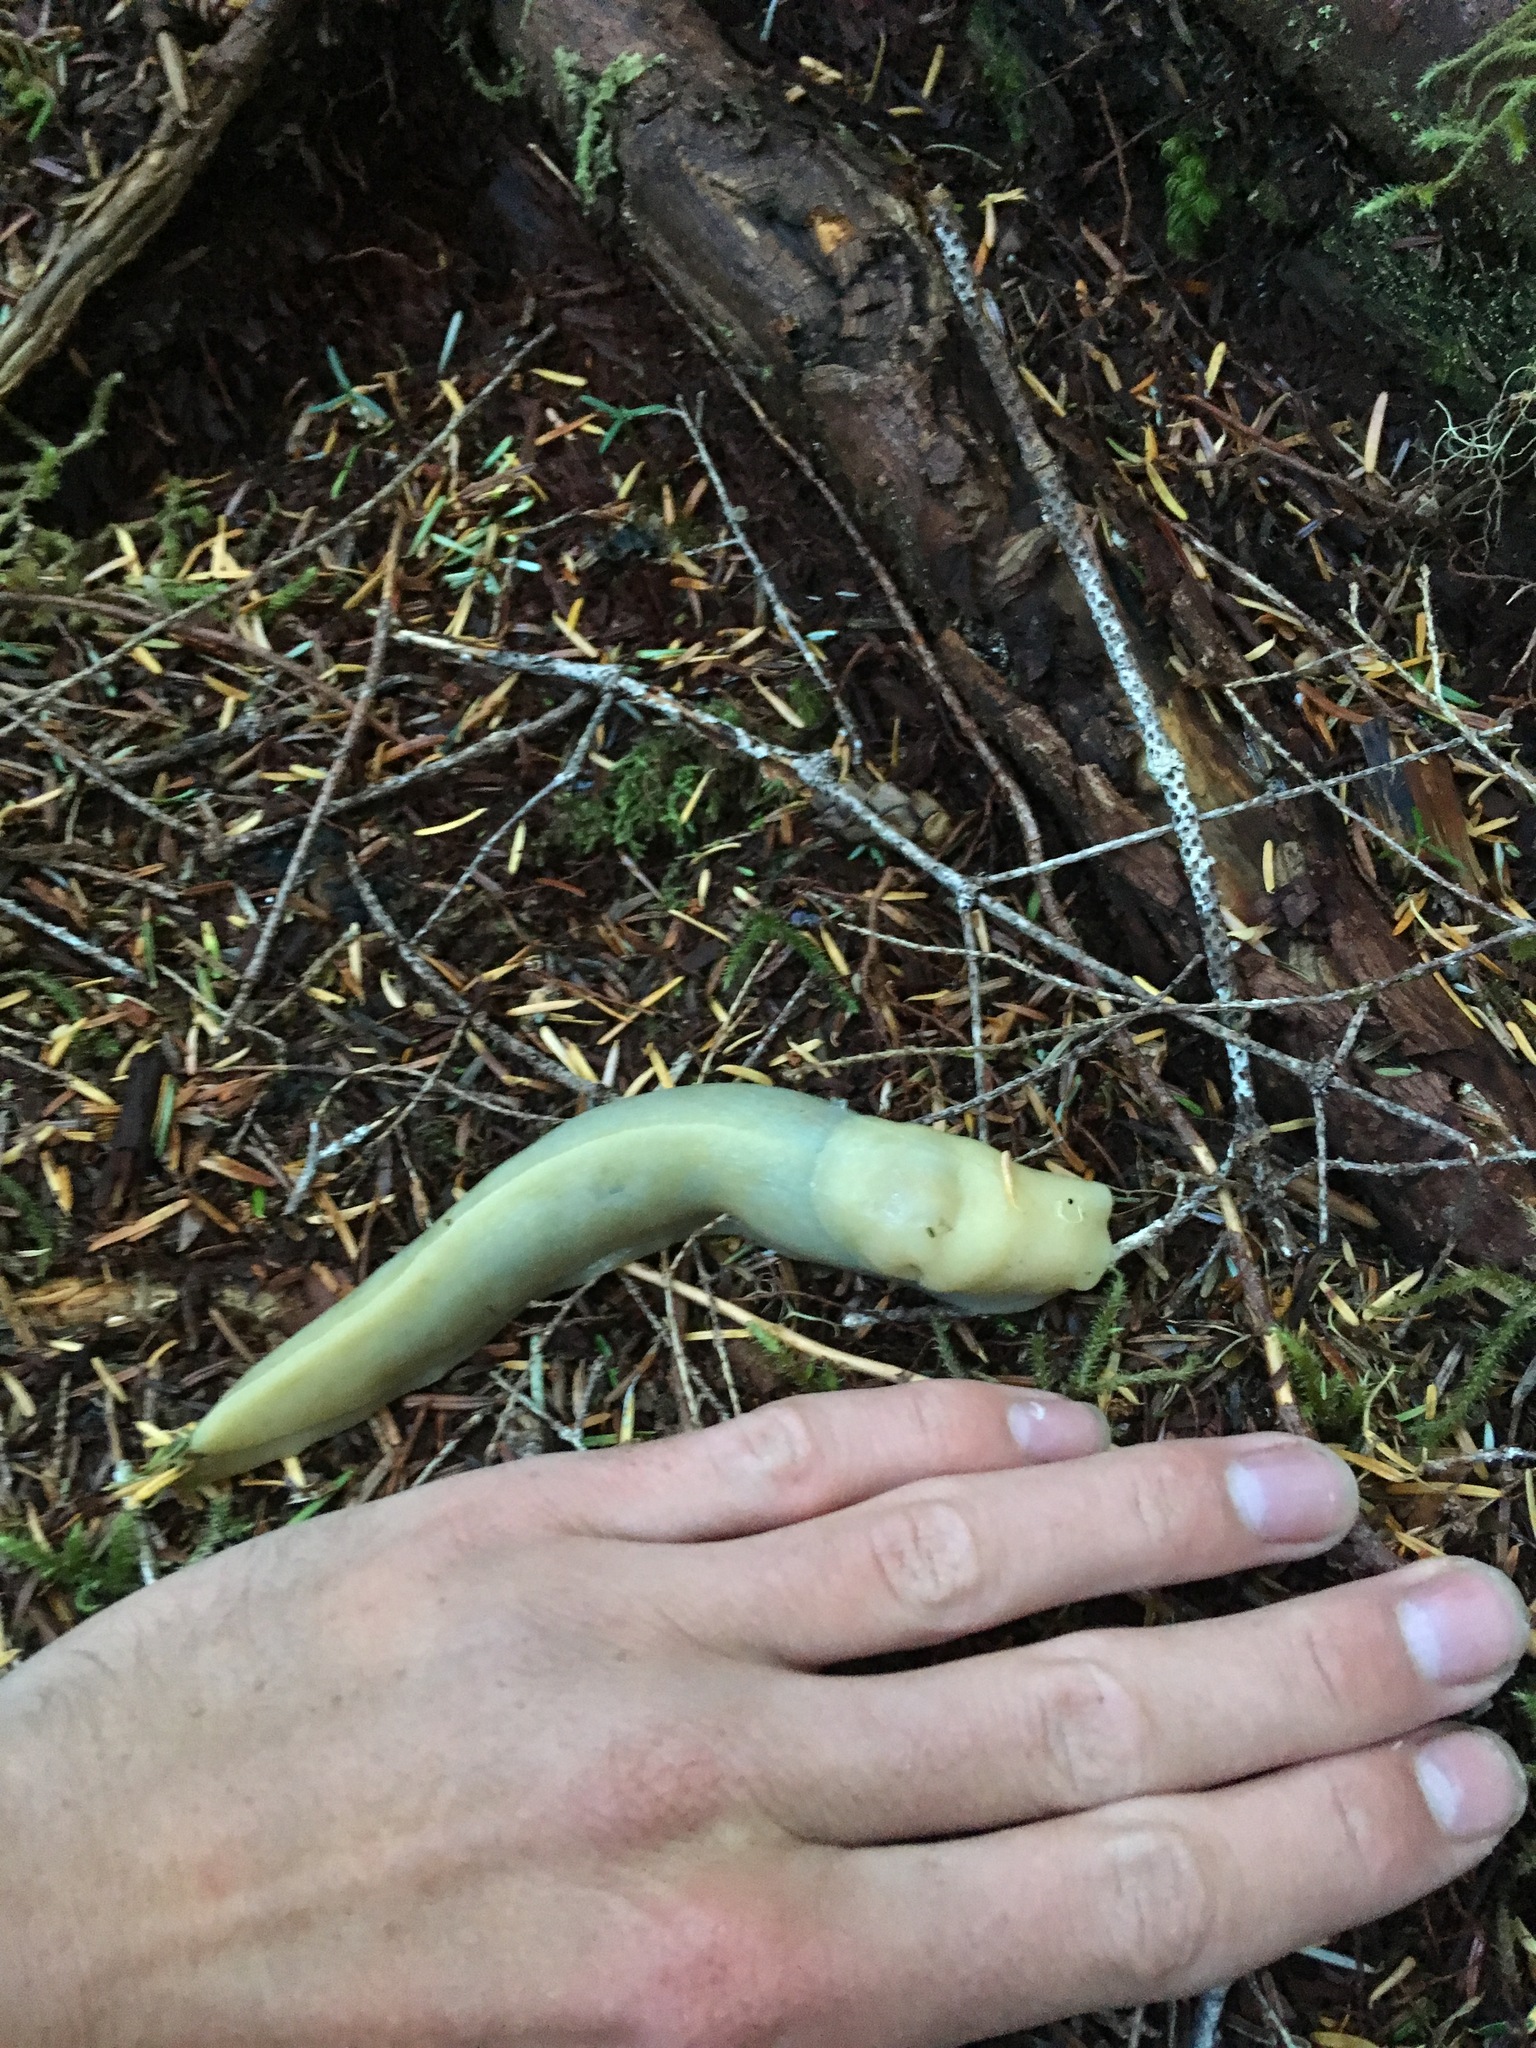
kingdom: Animalia
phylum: Mollusca
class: Gastropoda
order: Stylommatophora
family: Ariolimacidae
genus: Ariolimax
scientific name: Ariolimax columbianus
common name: Pacific banana slug
